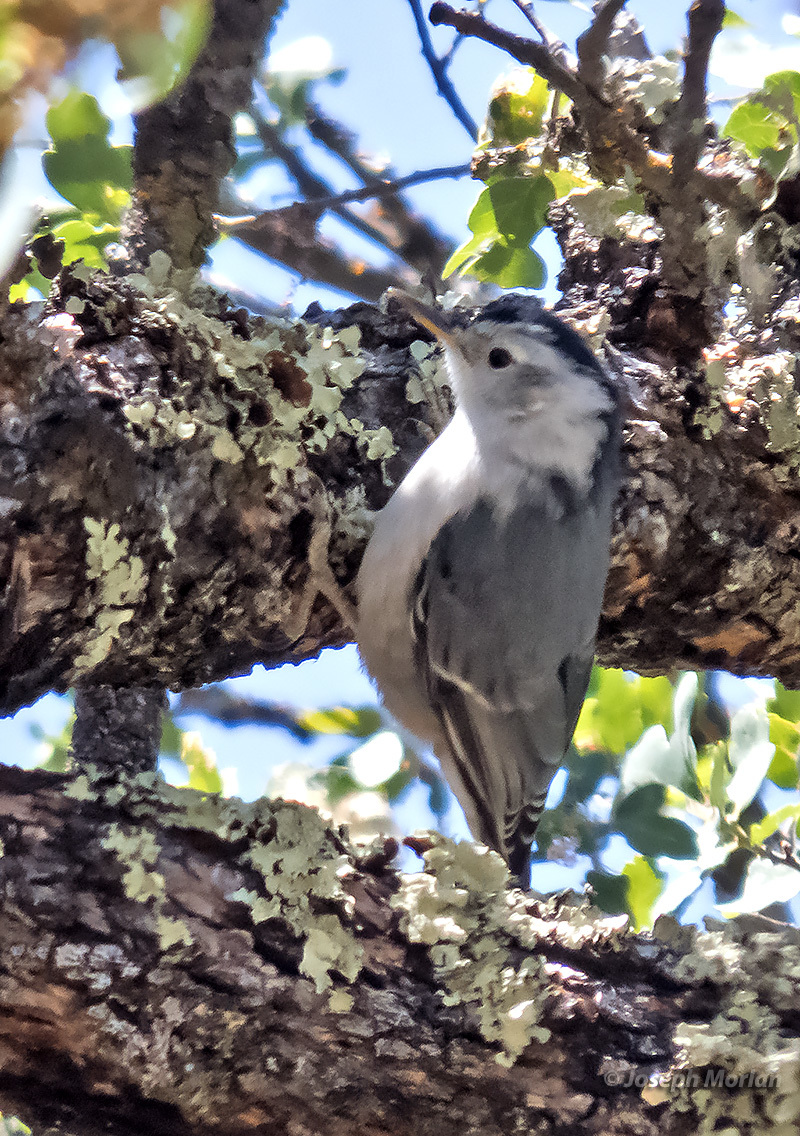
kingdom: Animalia
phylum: Chordata
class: Aves
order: Passeriformes
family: Sittidae
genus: Sitta
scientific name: Sitta carolinensis
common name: White-breasted nuthatch
